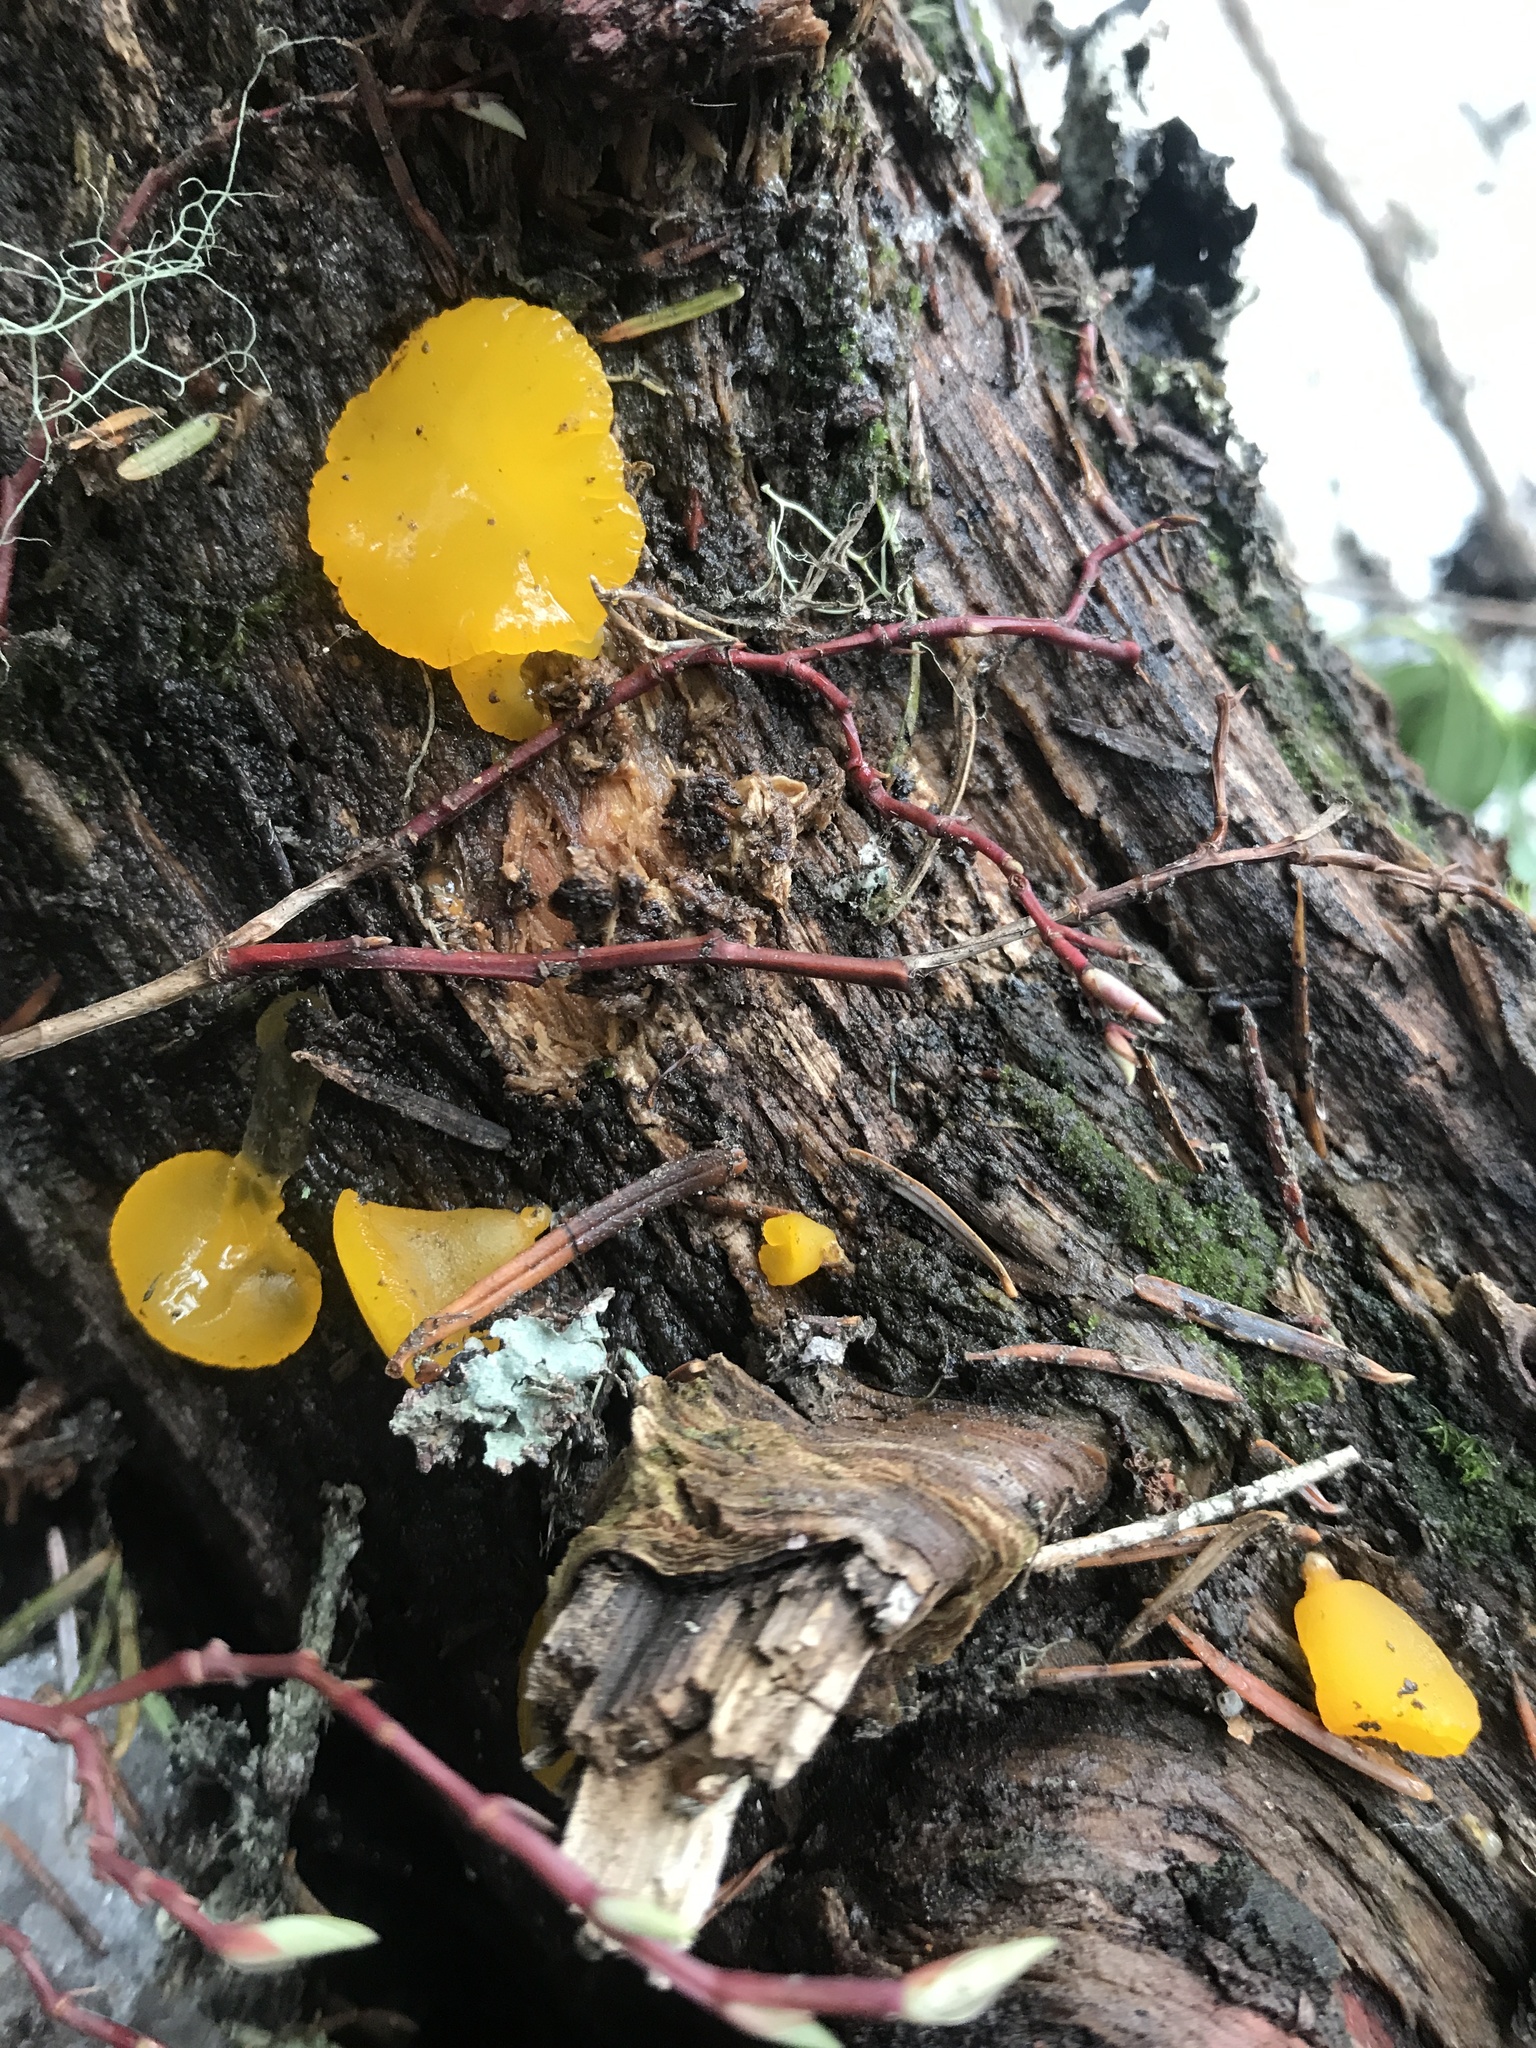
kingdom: Fungi
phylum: Basidiomycota
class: Dacrymycetes
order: Dacrymycetales
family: Dacrymycetaceae
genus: Guepiniopsis
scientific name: Guepiniopsis alpina
